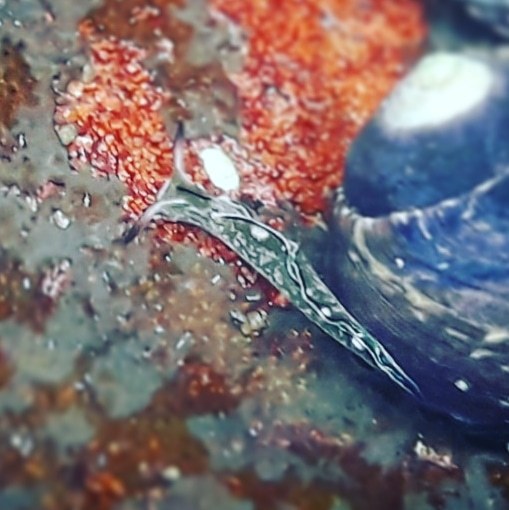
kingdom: Animalia
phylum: Mollusca
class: Gastropoda
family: Plakobranchidae
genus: Elysia
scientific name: Elysia coodgeensis
